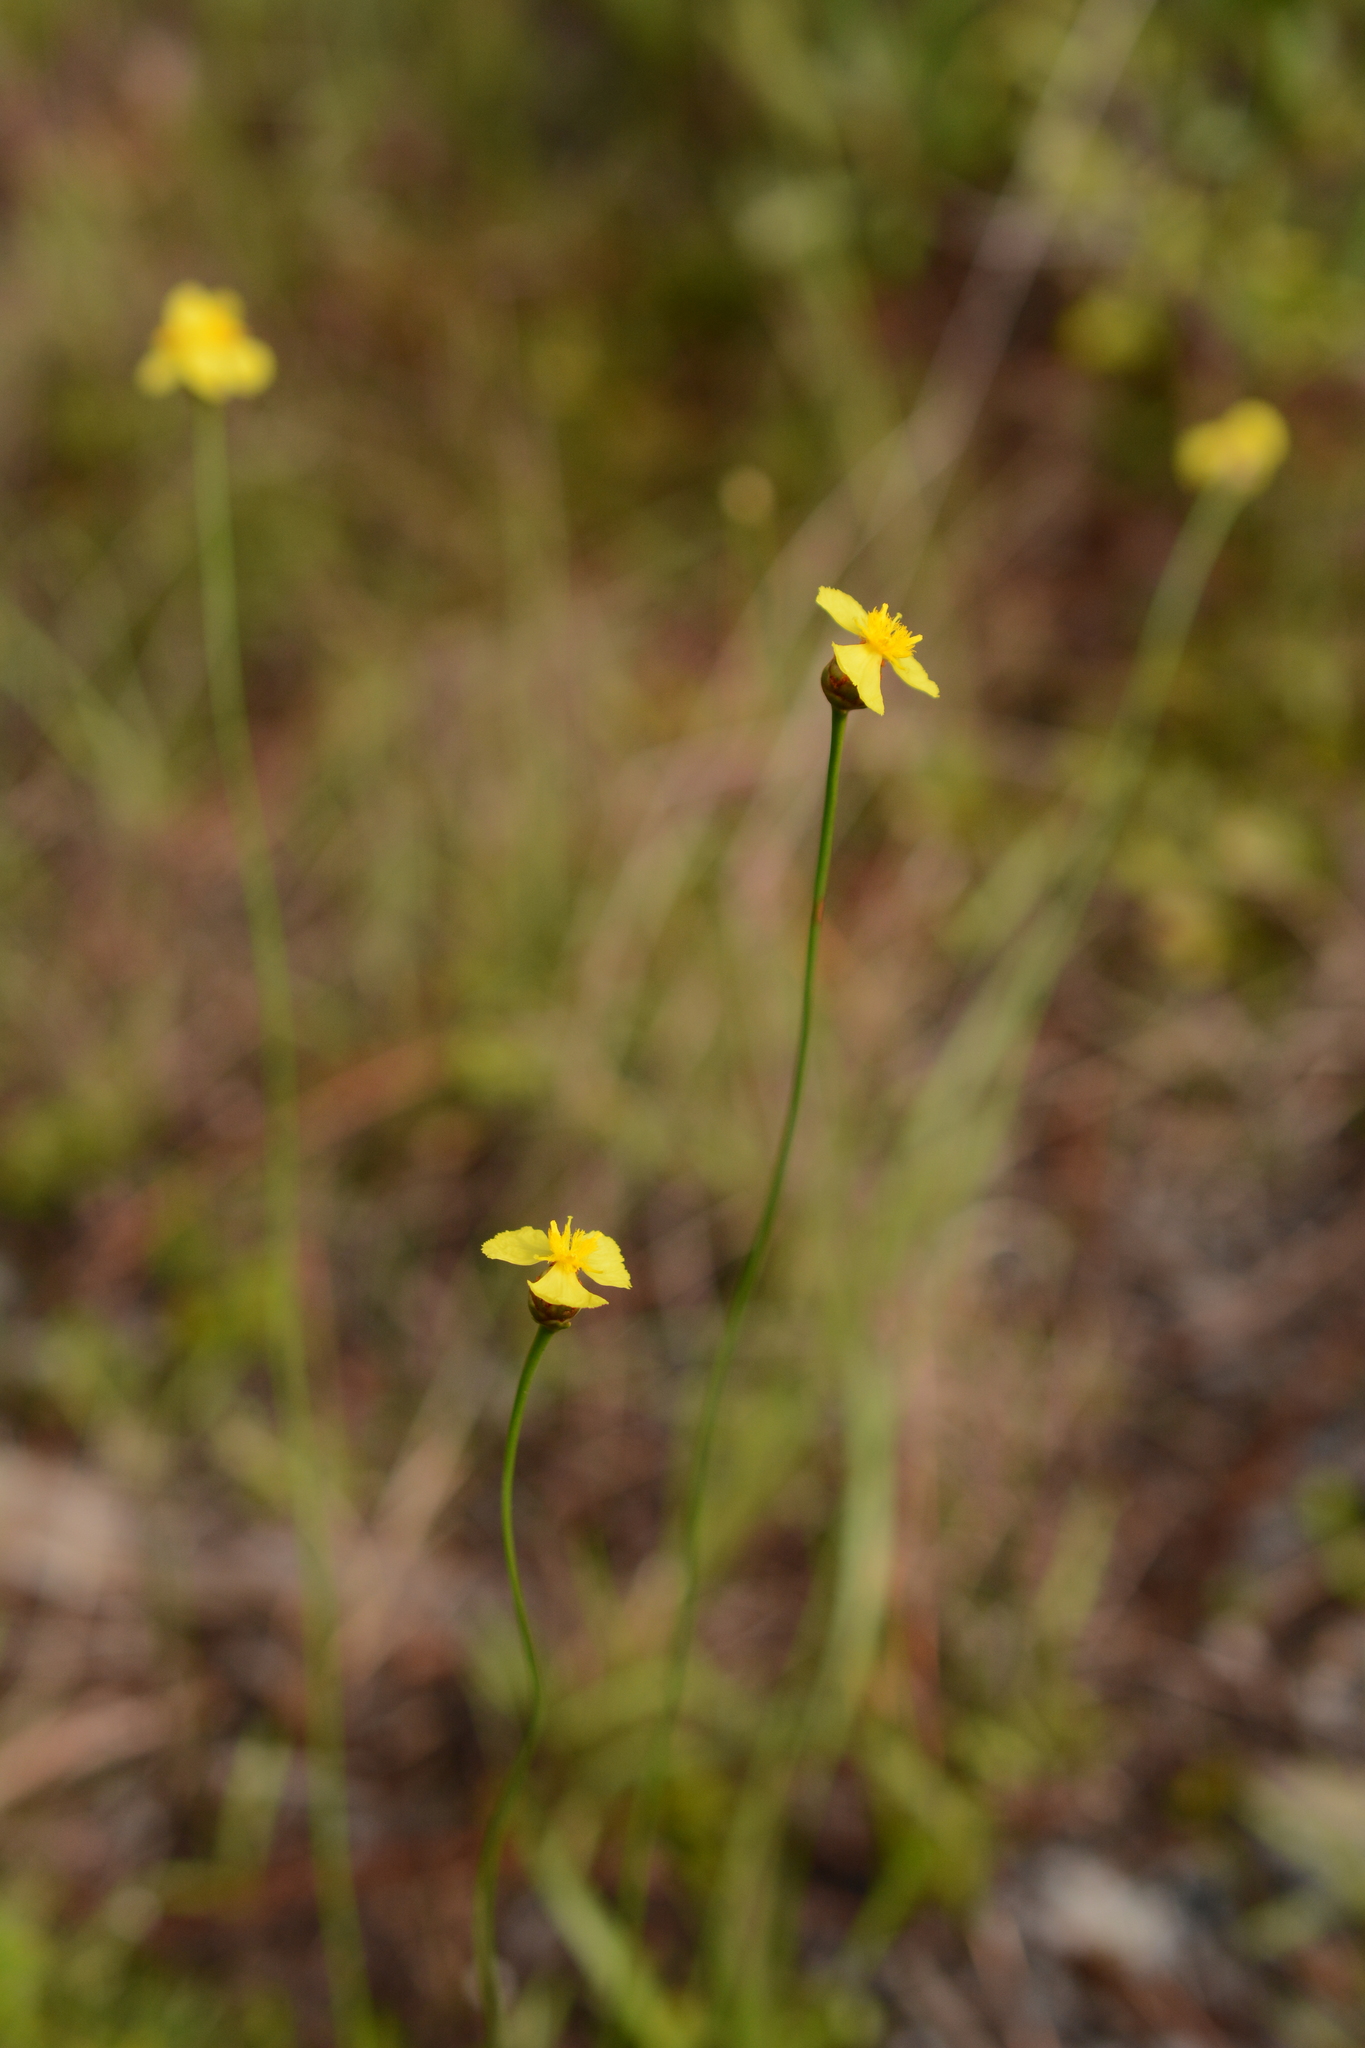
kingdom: Plantae
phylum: Tracheophyta
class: Liliopsida
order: Poales
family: Xyridaceae
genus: Xyris
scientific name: Xyris caroliniana
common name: Carolina yellow-eyed-grass
